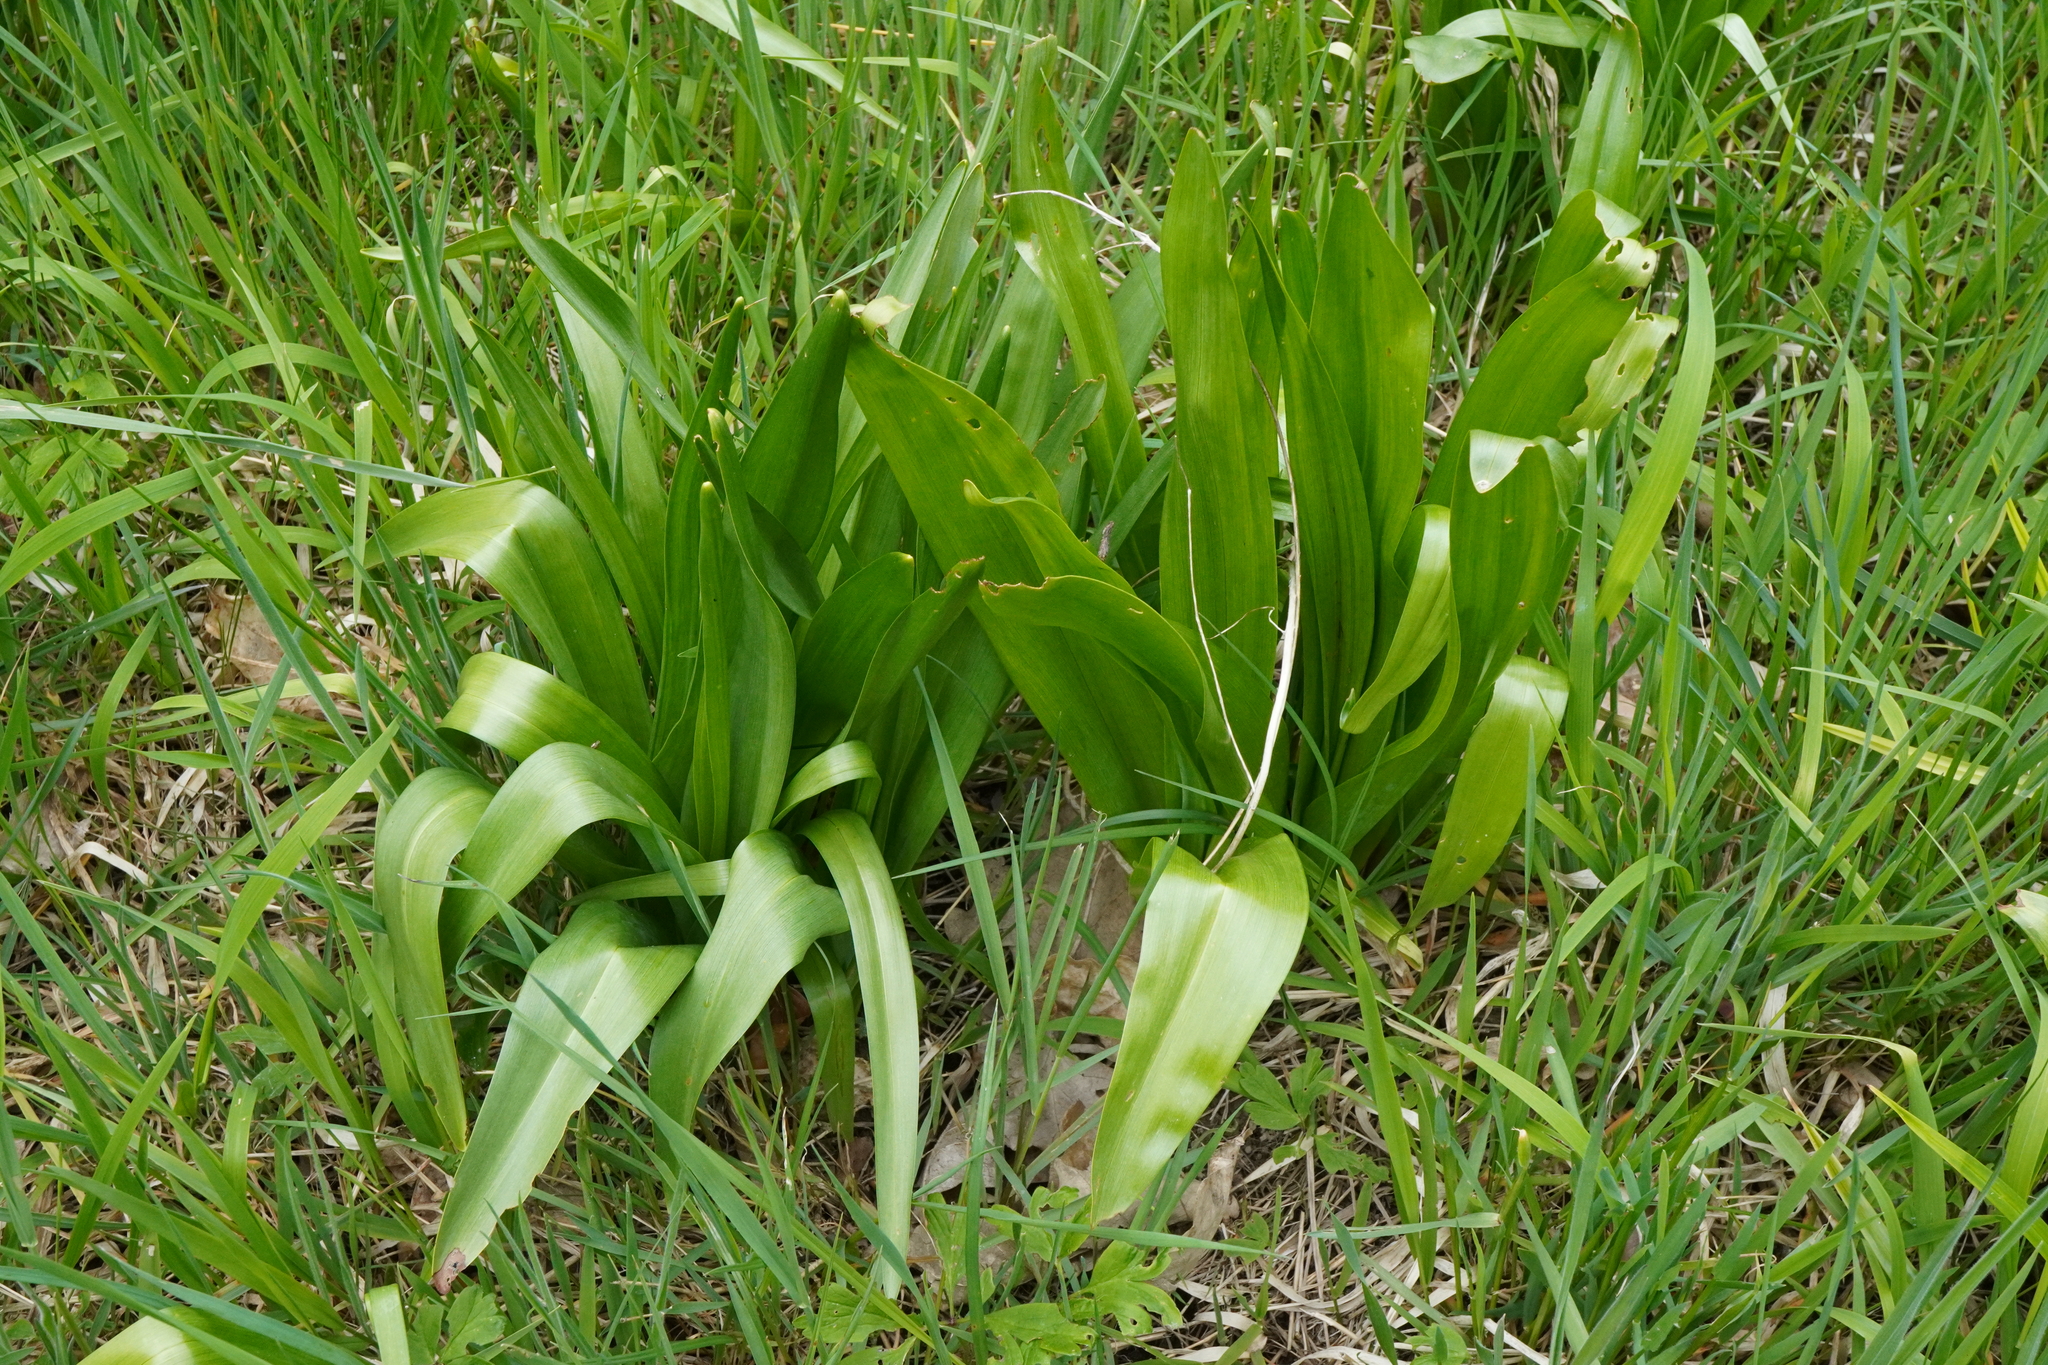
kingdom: Plantae
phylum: Tracheophyta
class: Liliopsida
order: Liliales
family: Colchicaceae
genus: Colchicum
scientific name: Colchicum autumnale
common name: Autumn crocus
